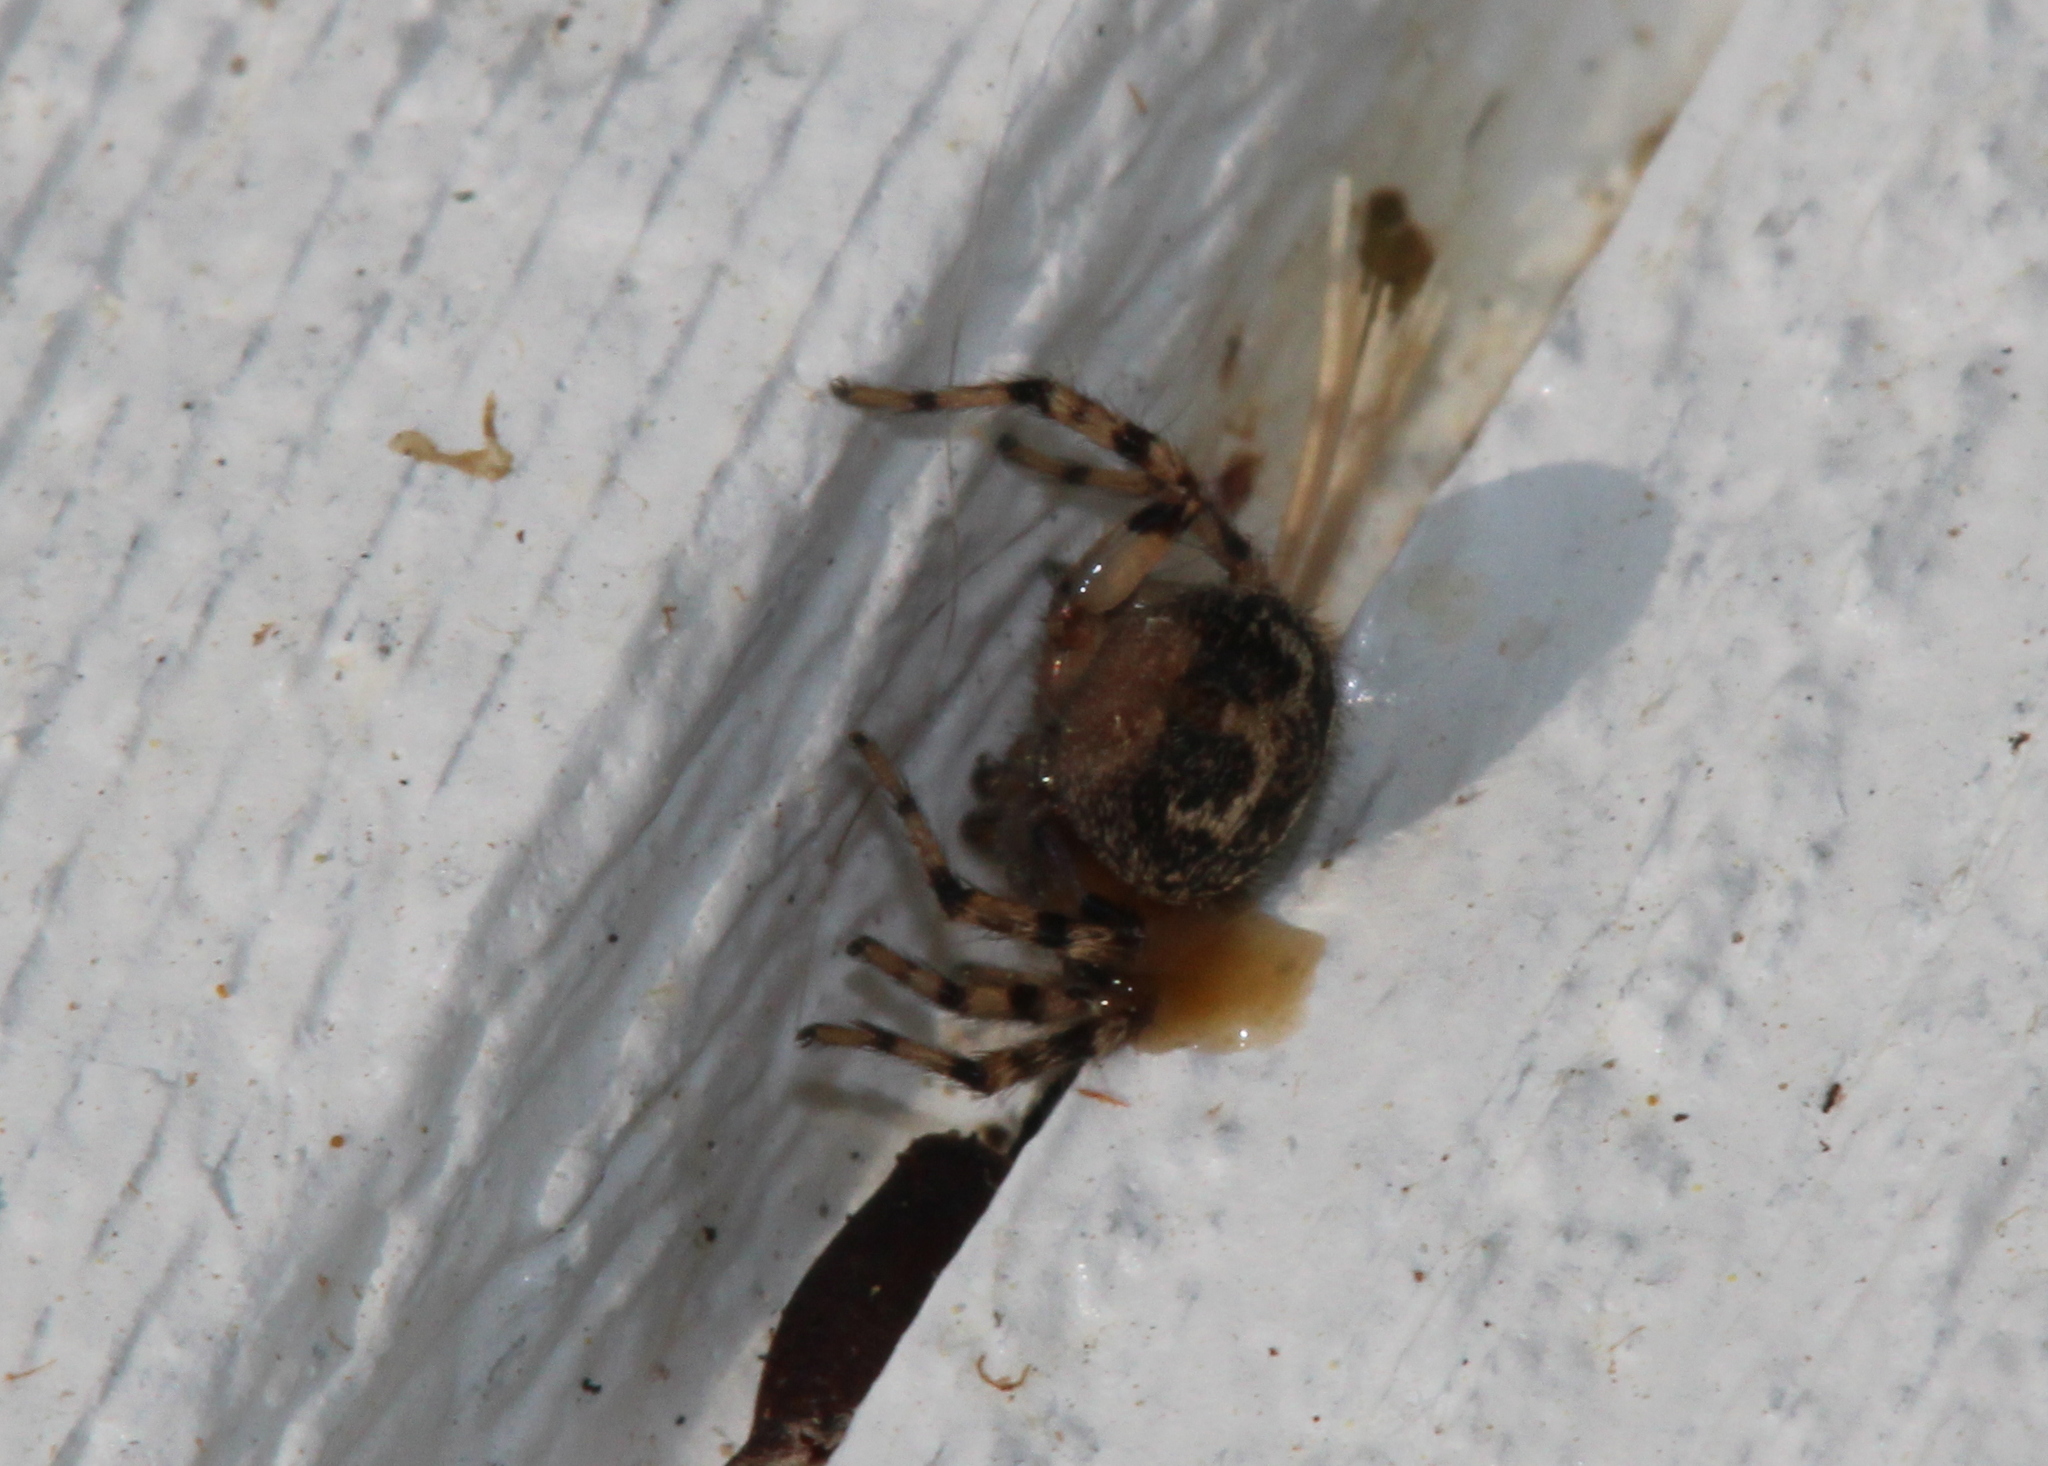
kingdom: Animalia
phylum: Arthropoda
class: Arachnida
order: Araneae
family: Salticidae
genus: Naphrys
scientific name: Naphrys pulex
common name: Flea jumping spider
